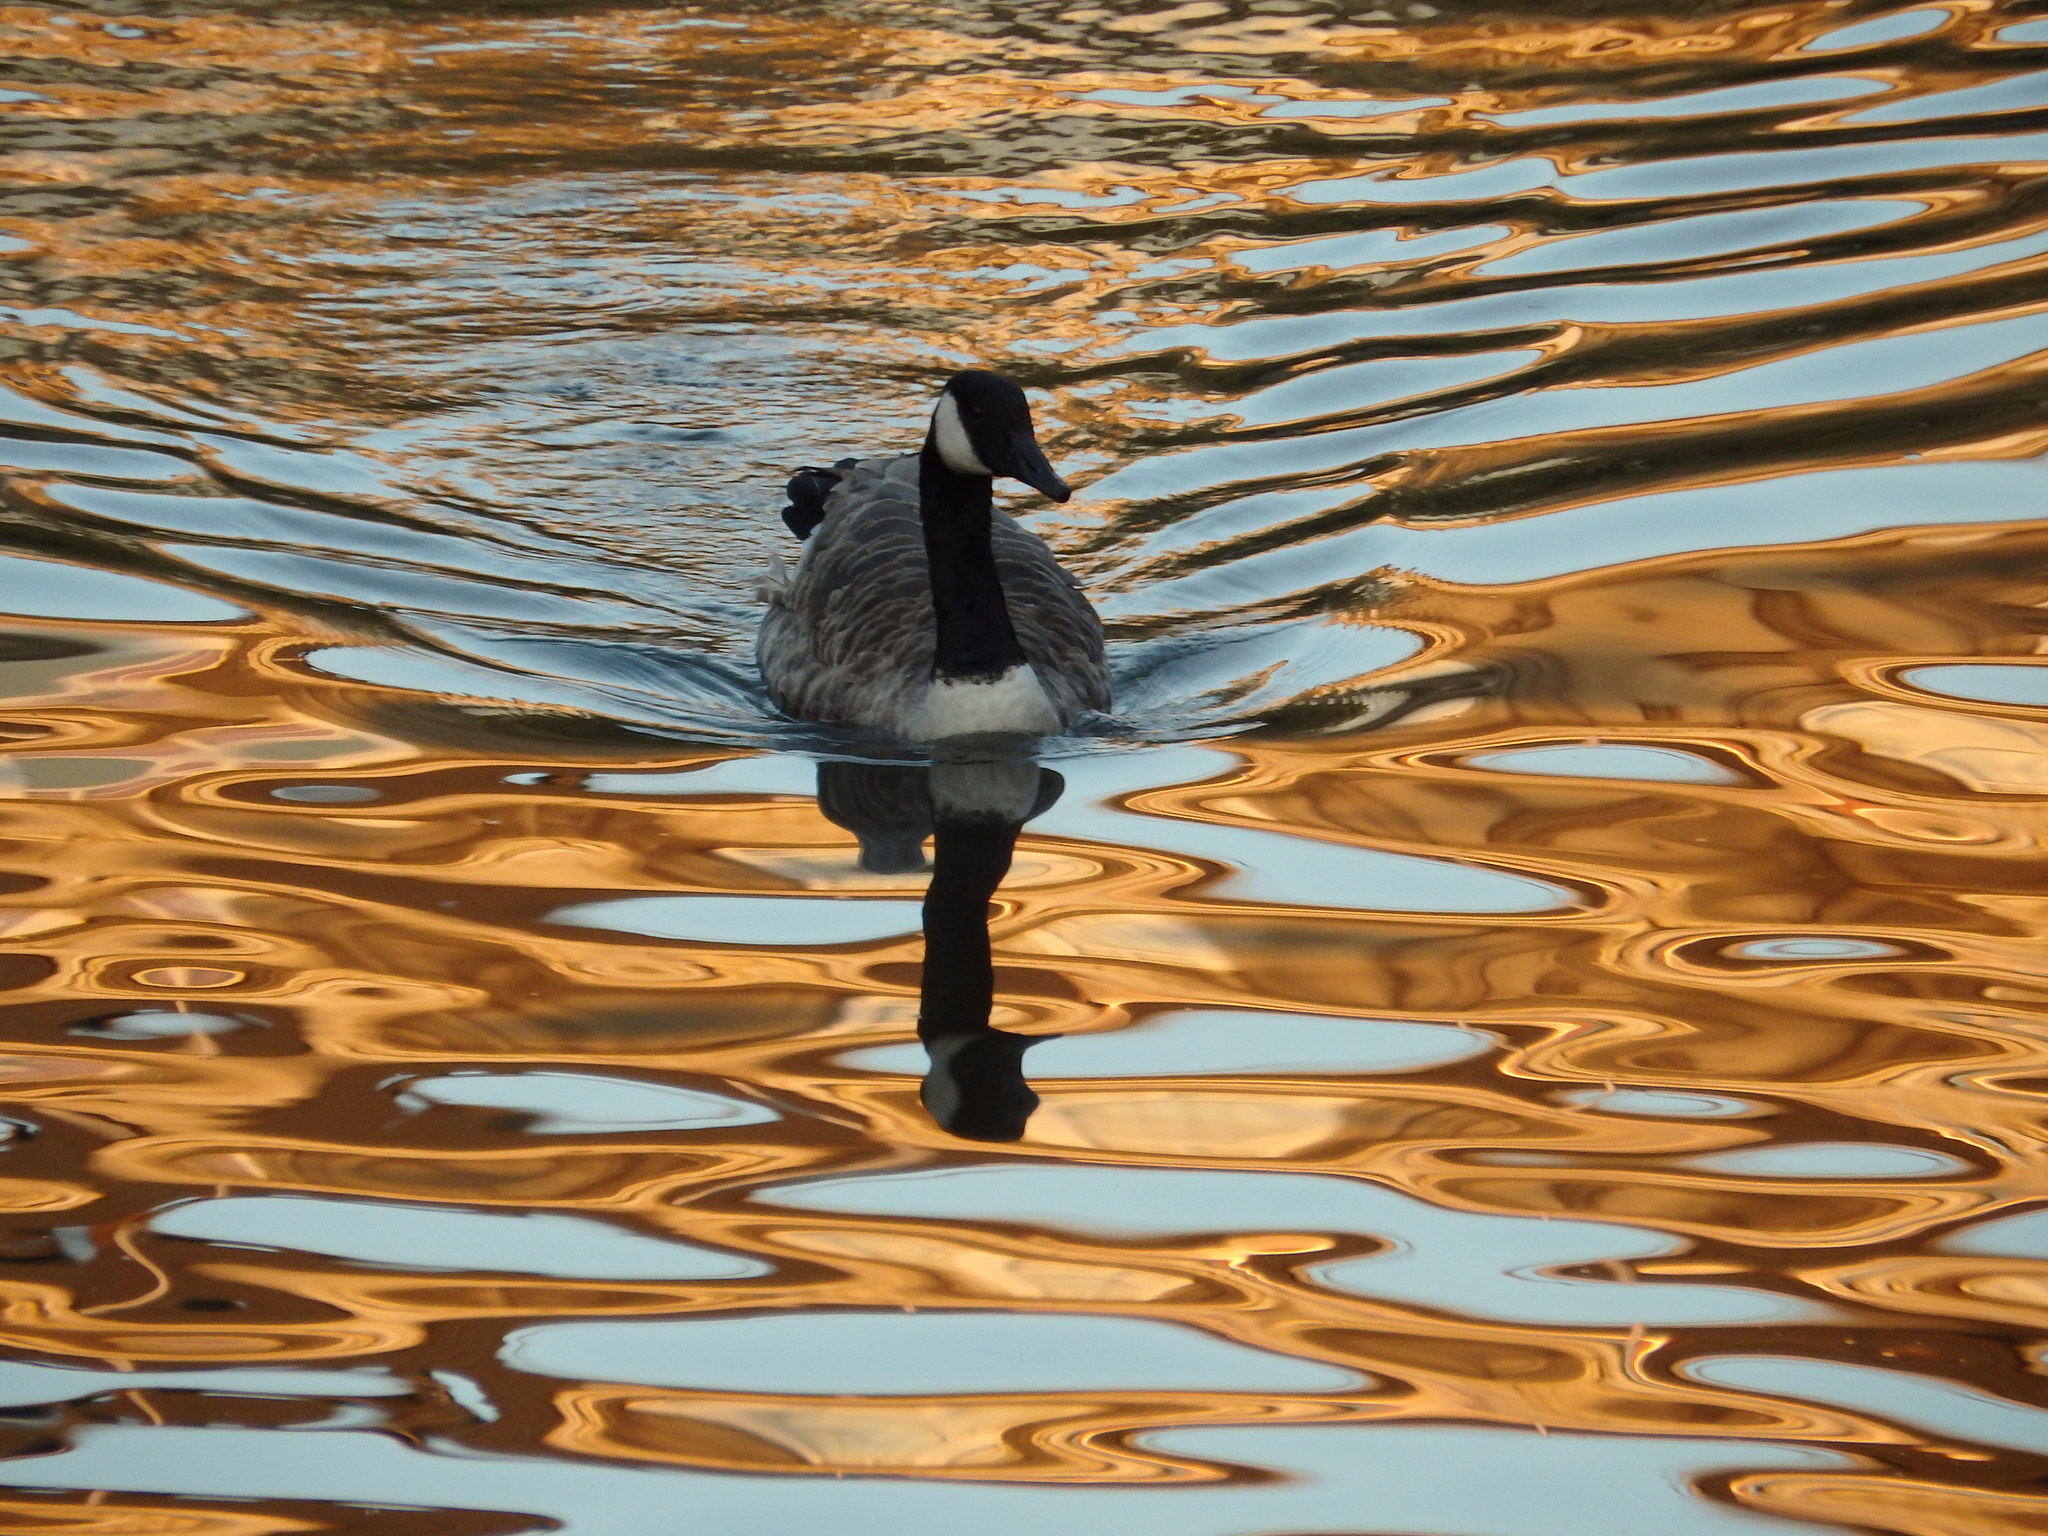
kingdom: Animalia
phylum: Chordata
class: Aves
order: Anseriformes
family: Anatidae
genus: Branta
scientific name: Branta canadensis
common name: Canada goose
